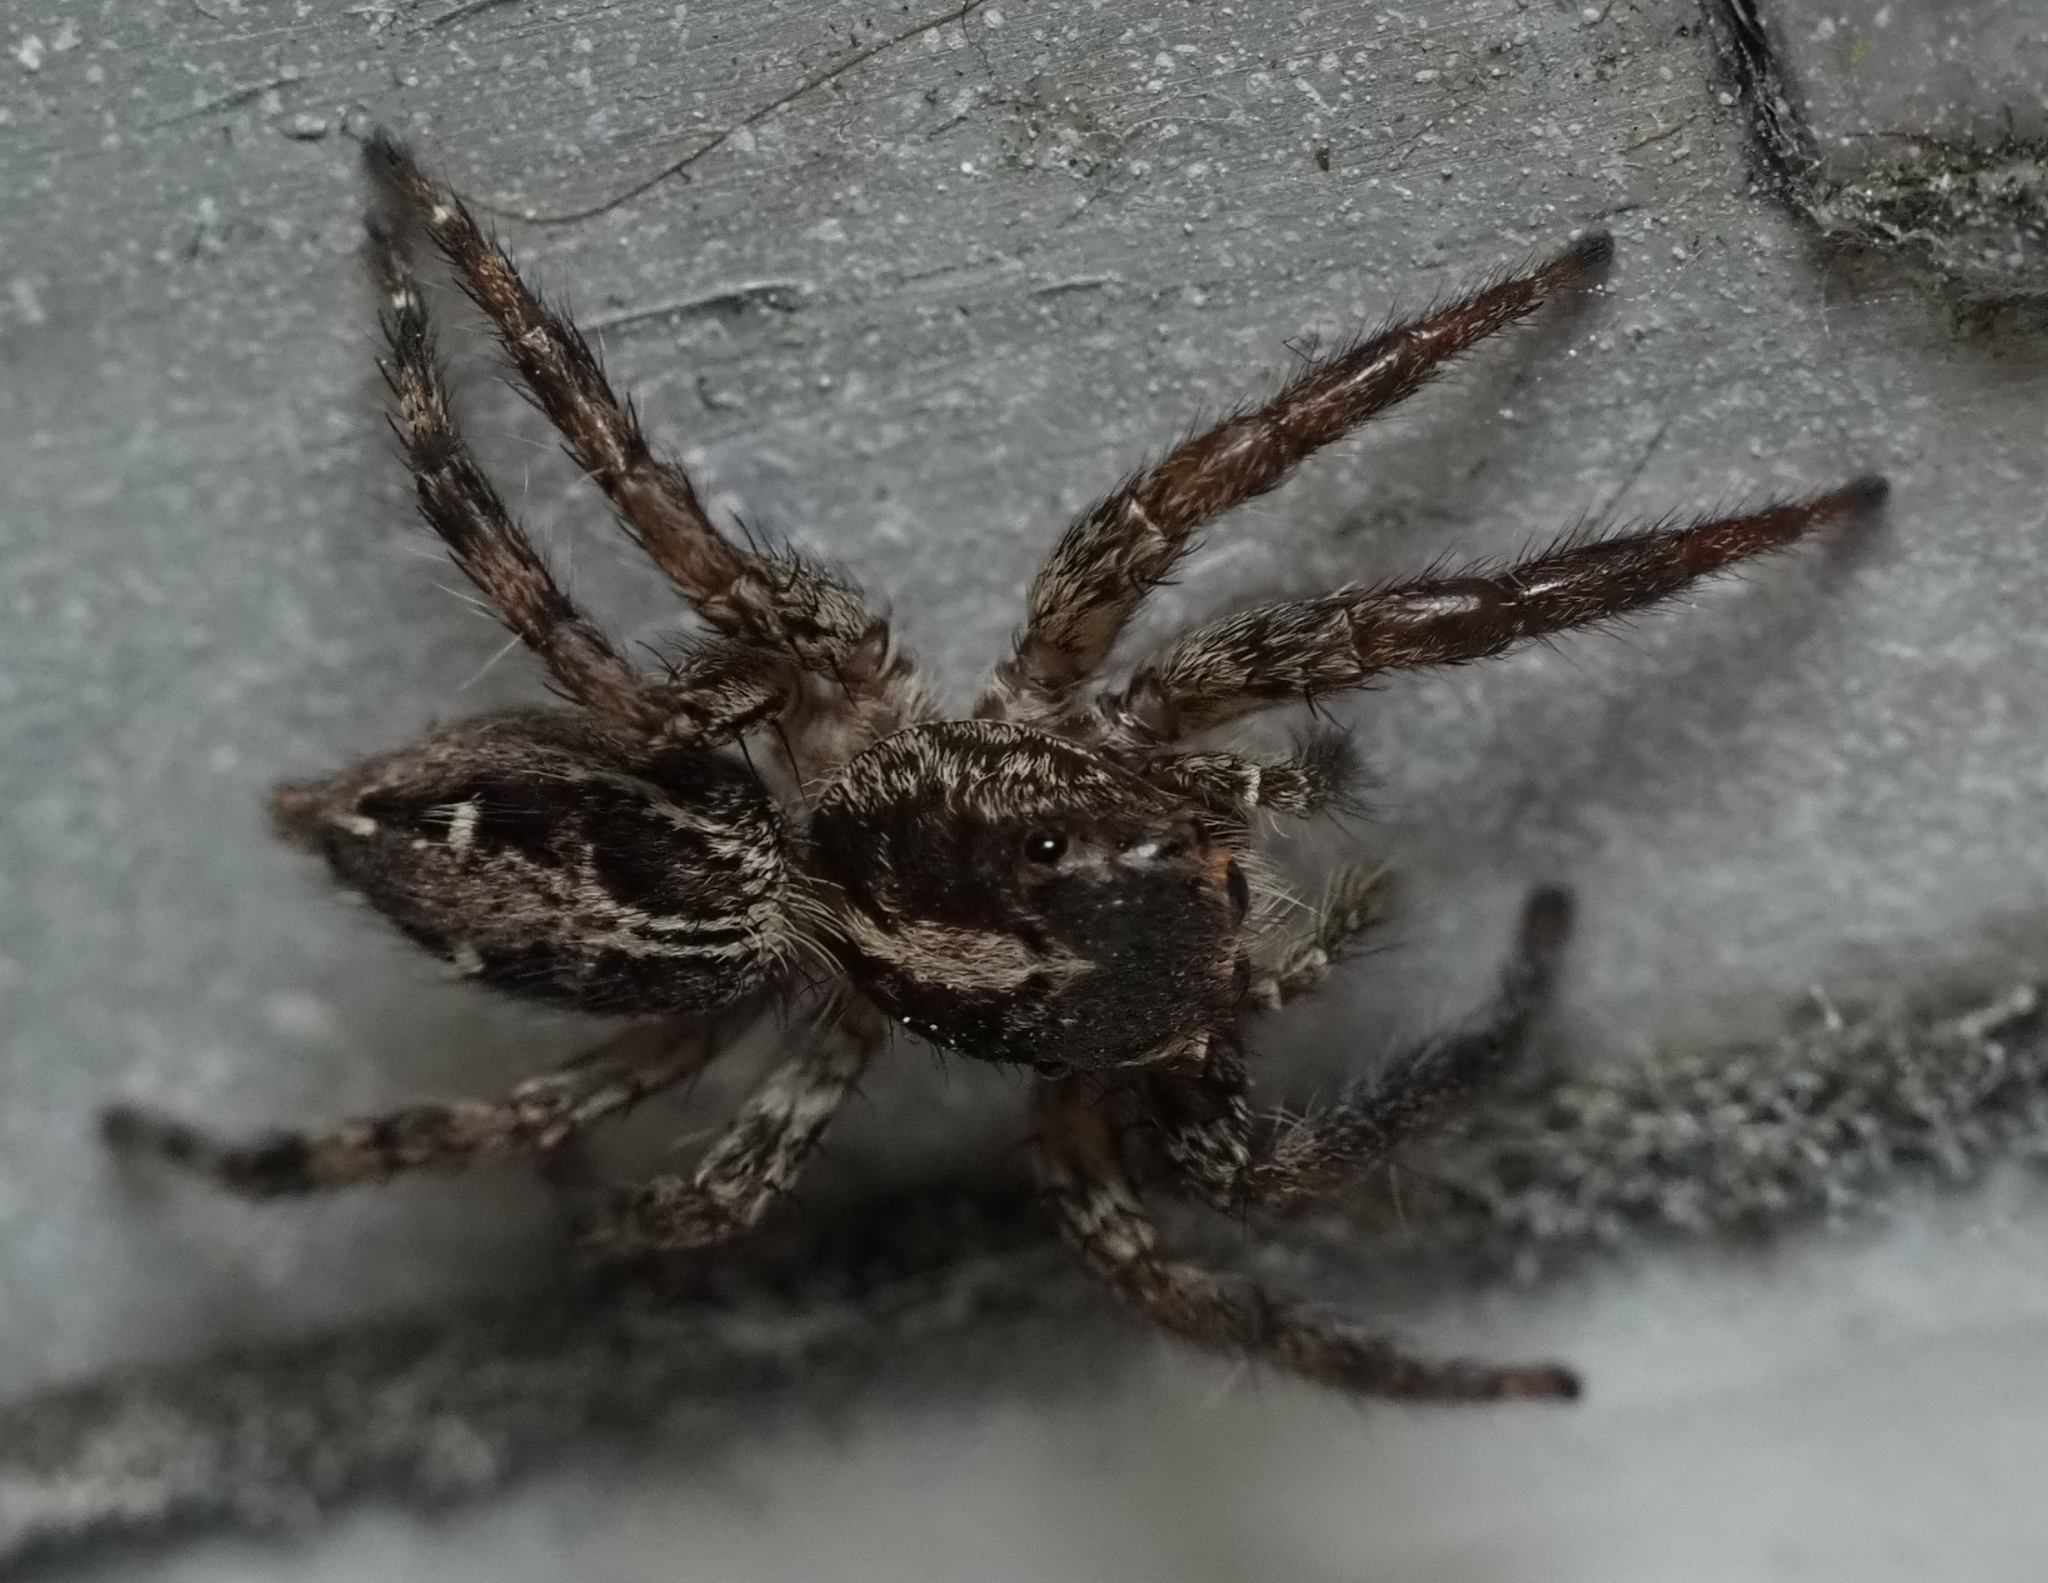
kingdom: Animalia
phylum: Arthropoda
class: Arachnida
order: Araneae
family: Salticidae
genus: Plexippus
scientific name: Plexippus paykulli
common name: Pantropical jumper
